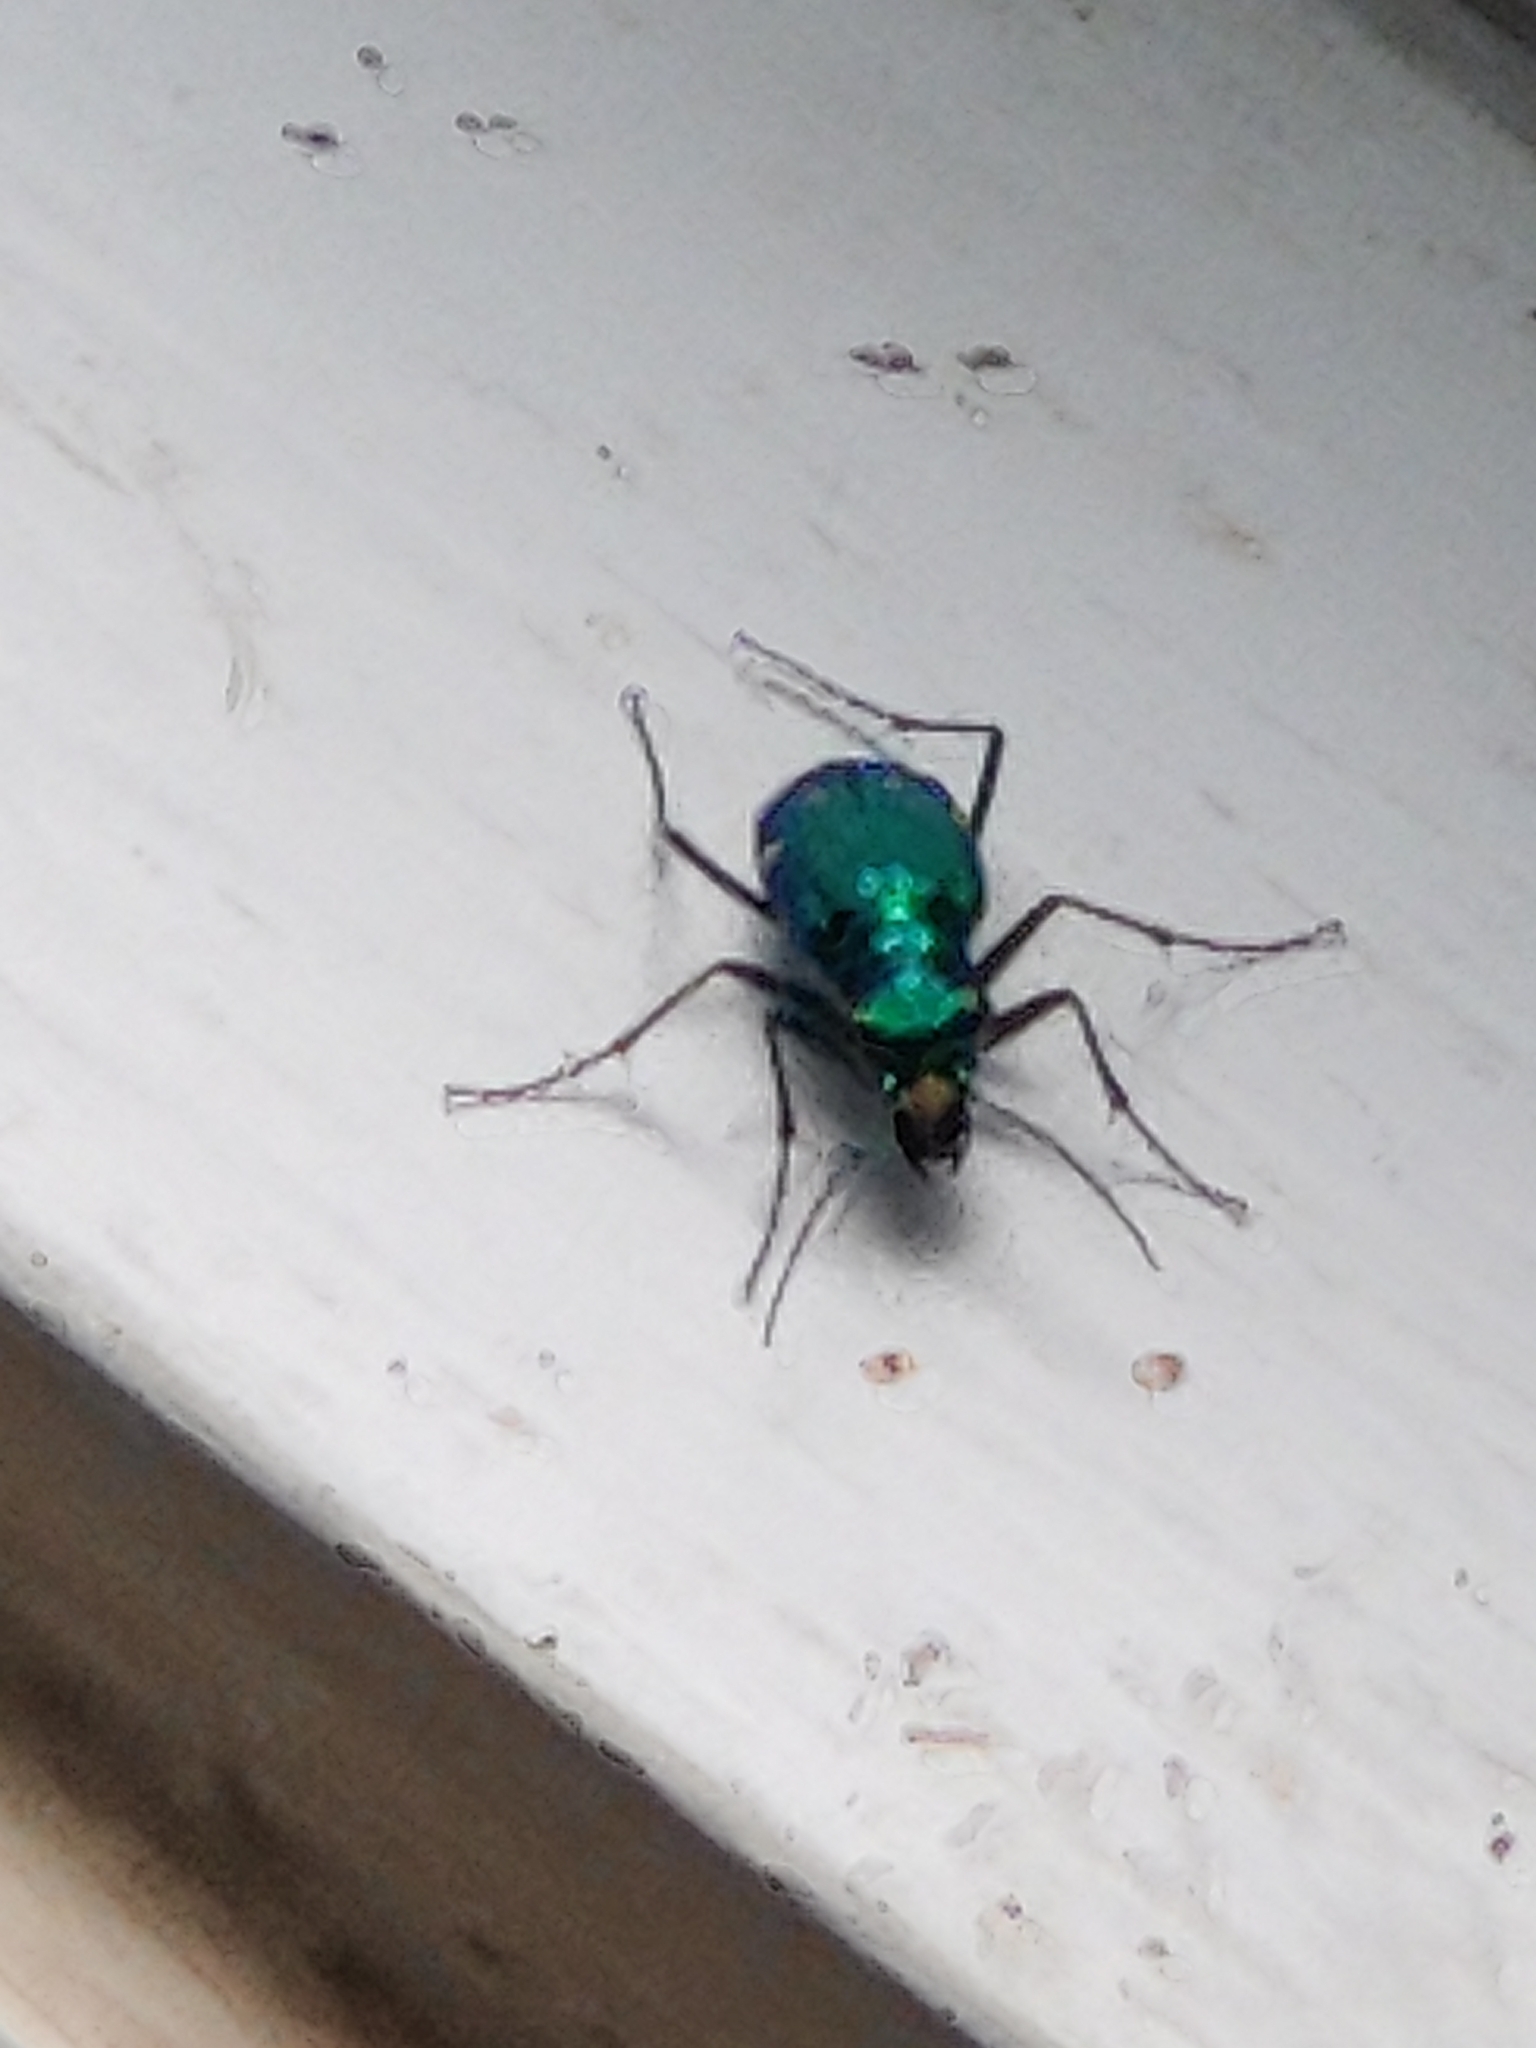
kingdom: Animalia
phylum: Arthropoda
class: Insecta
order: Coleoptera
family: Carabidae
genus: Cicindela
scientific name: Cicindela sexguttata
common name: Six-spotted tiger beetle
